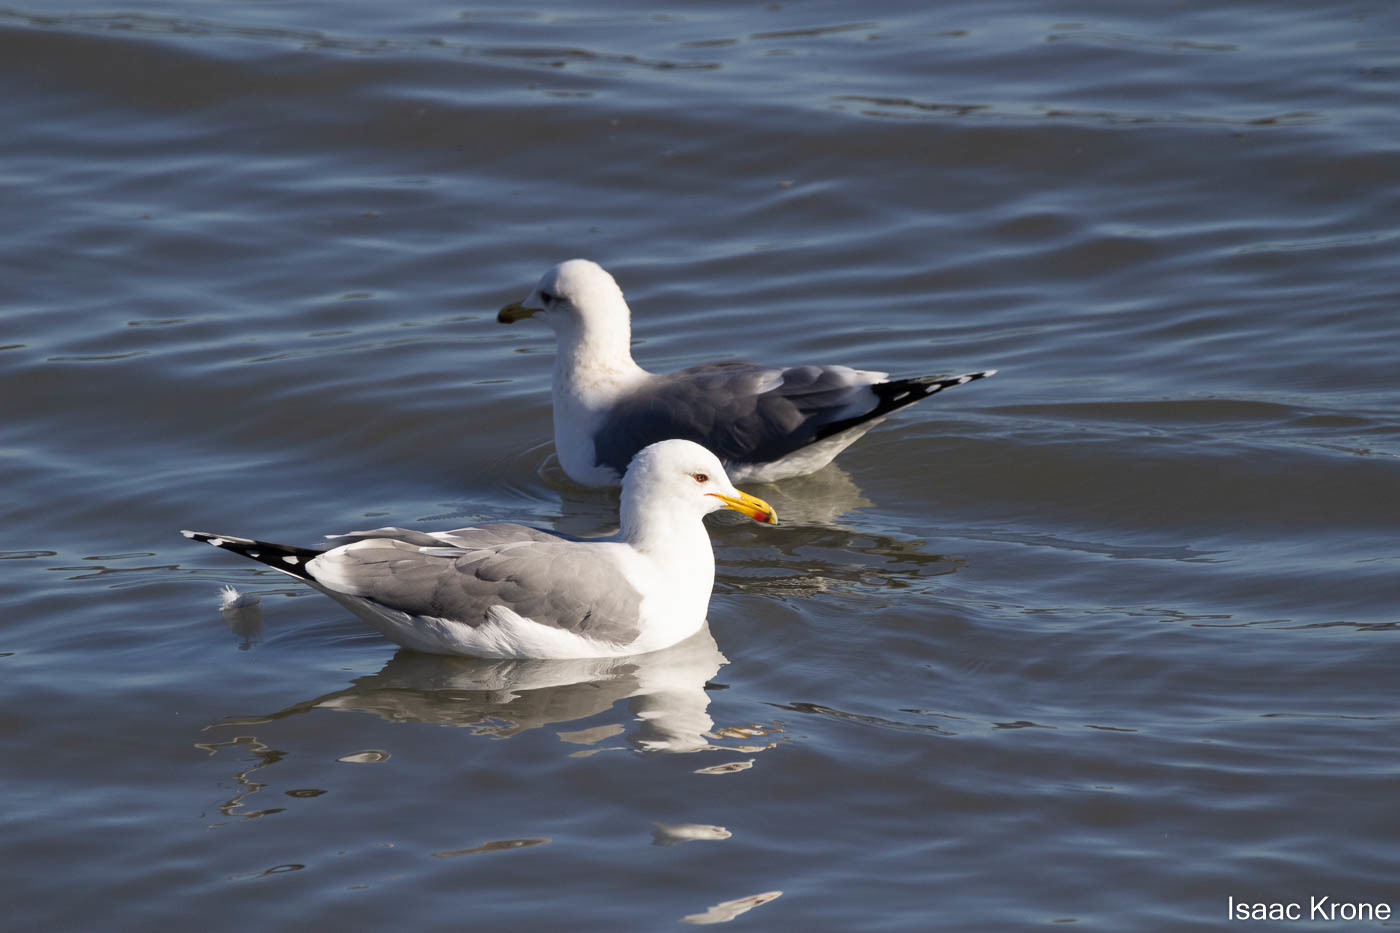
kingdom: Animalia
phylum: Chordata
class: Aves
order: Charadriiformes
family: Laridae
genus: Larus
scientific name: Larus californicus
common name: California gull
